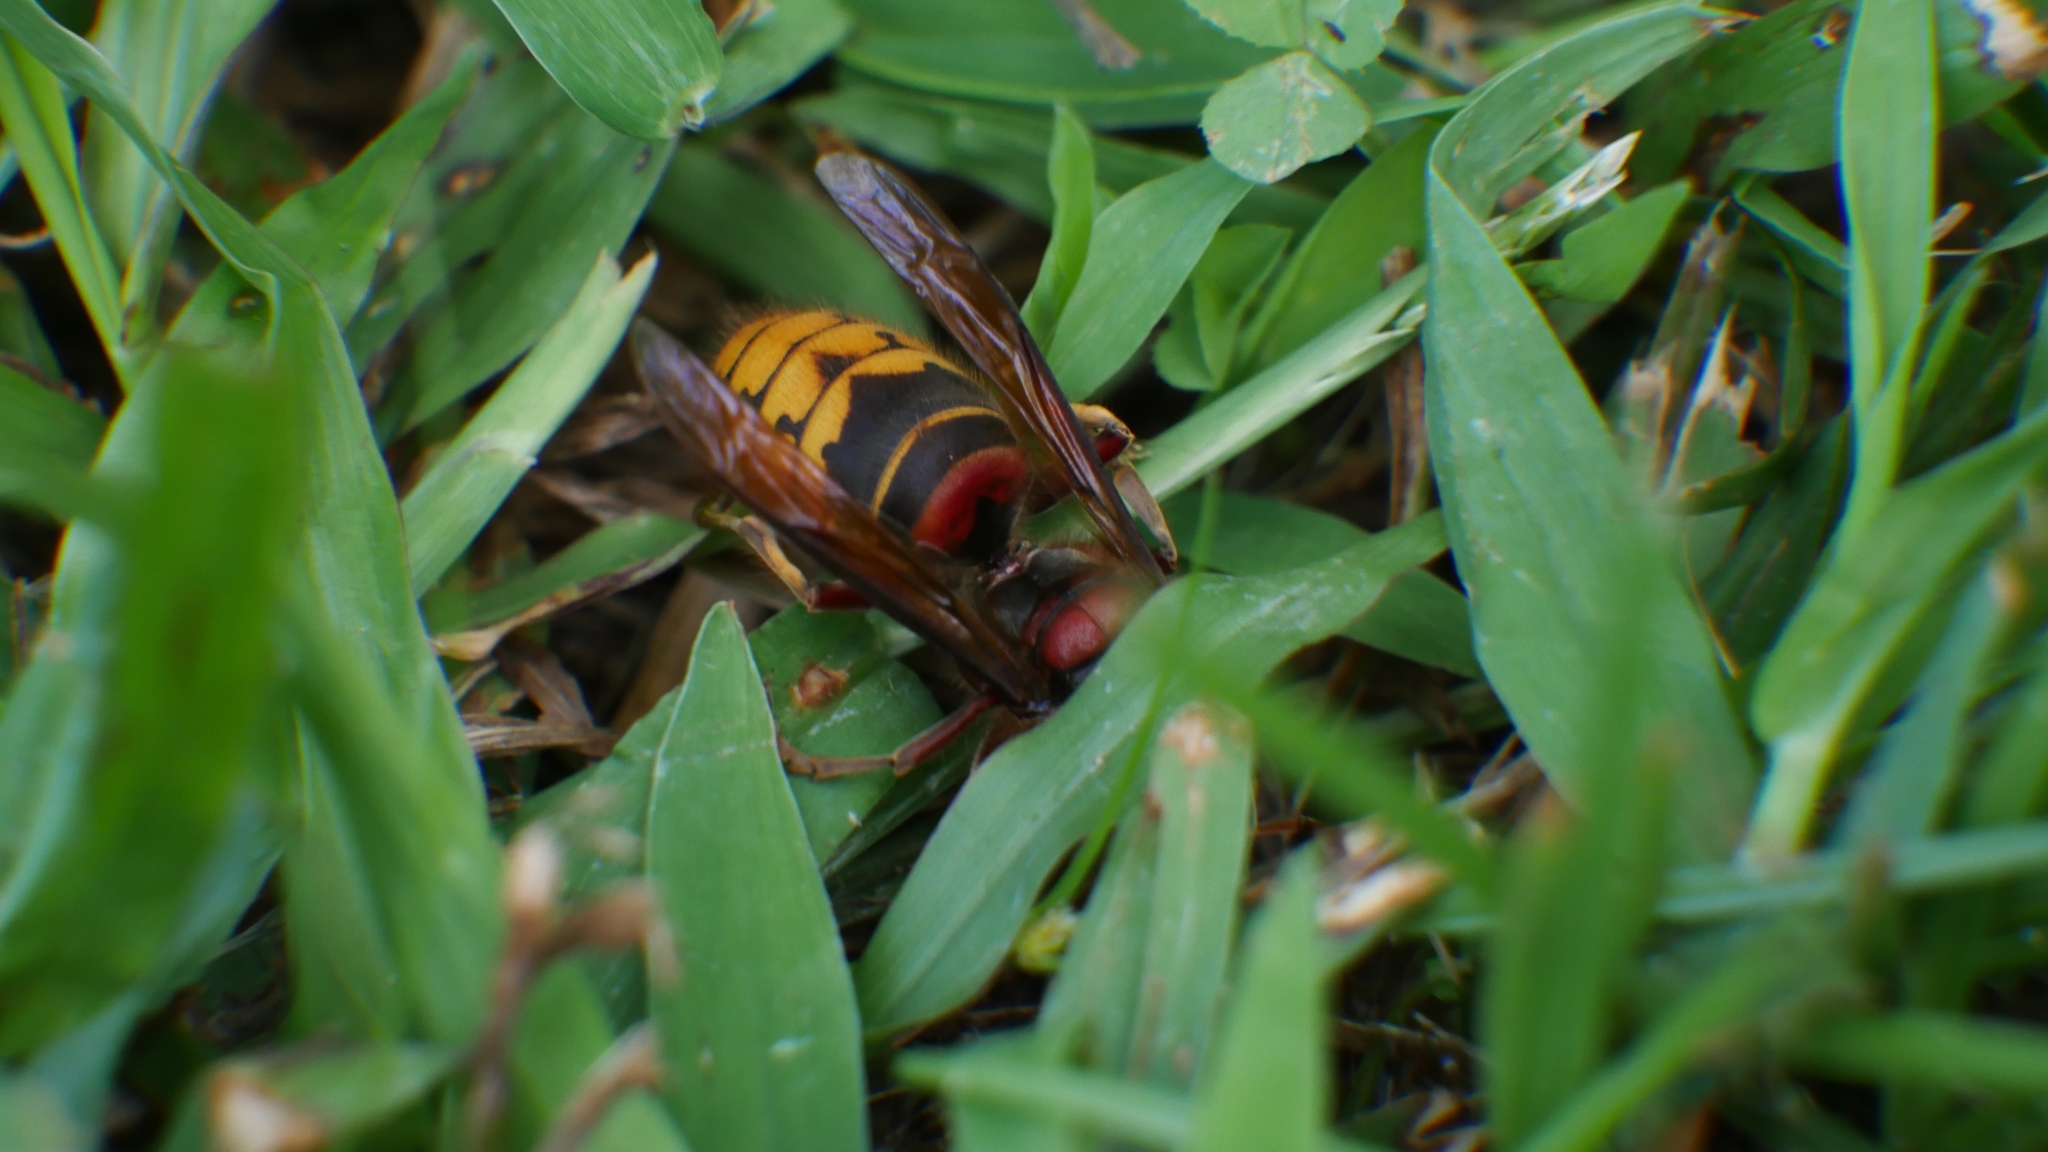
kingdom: Animalia
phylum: Arthropoda
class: Insecta
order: Hymenoptera
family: Vespidae
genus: Vespa
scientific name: Vespa crabro
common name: Hornet
